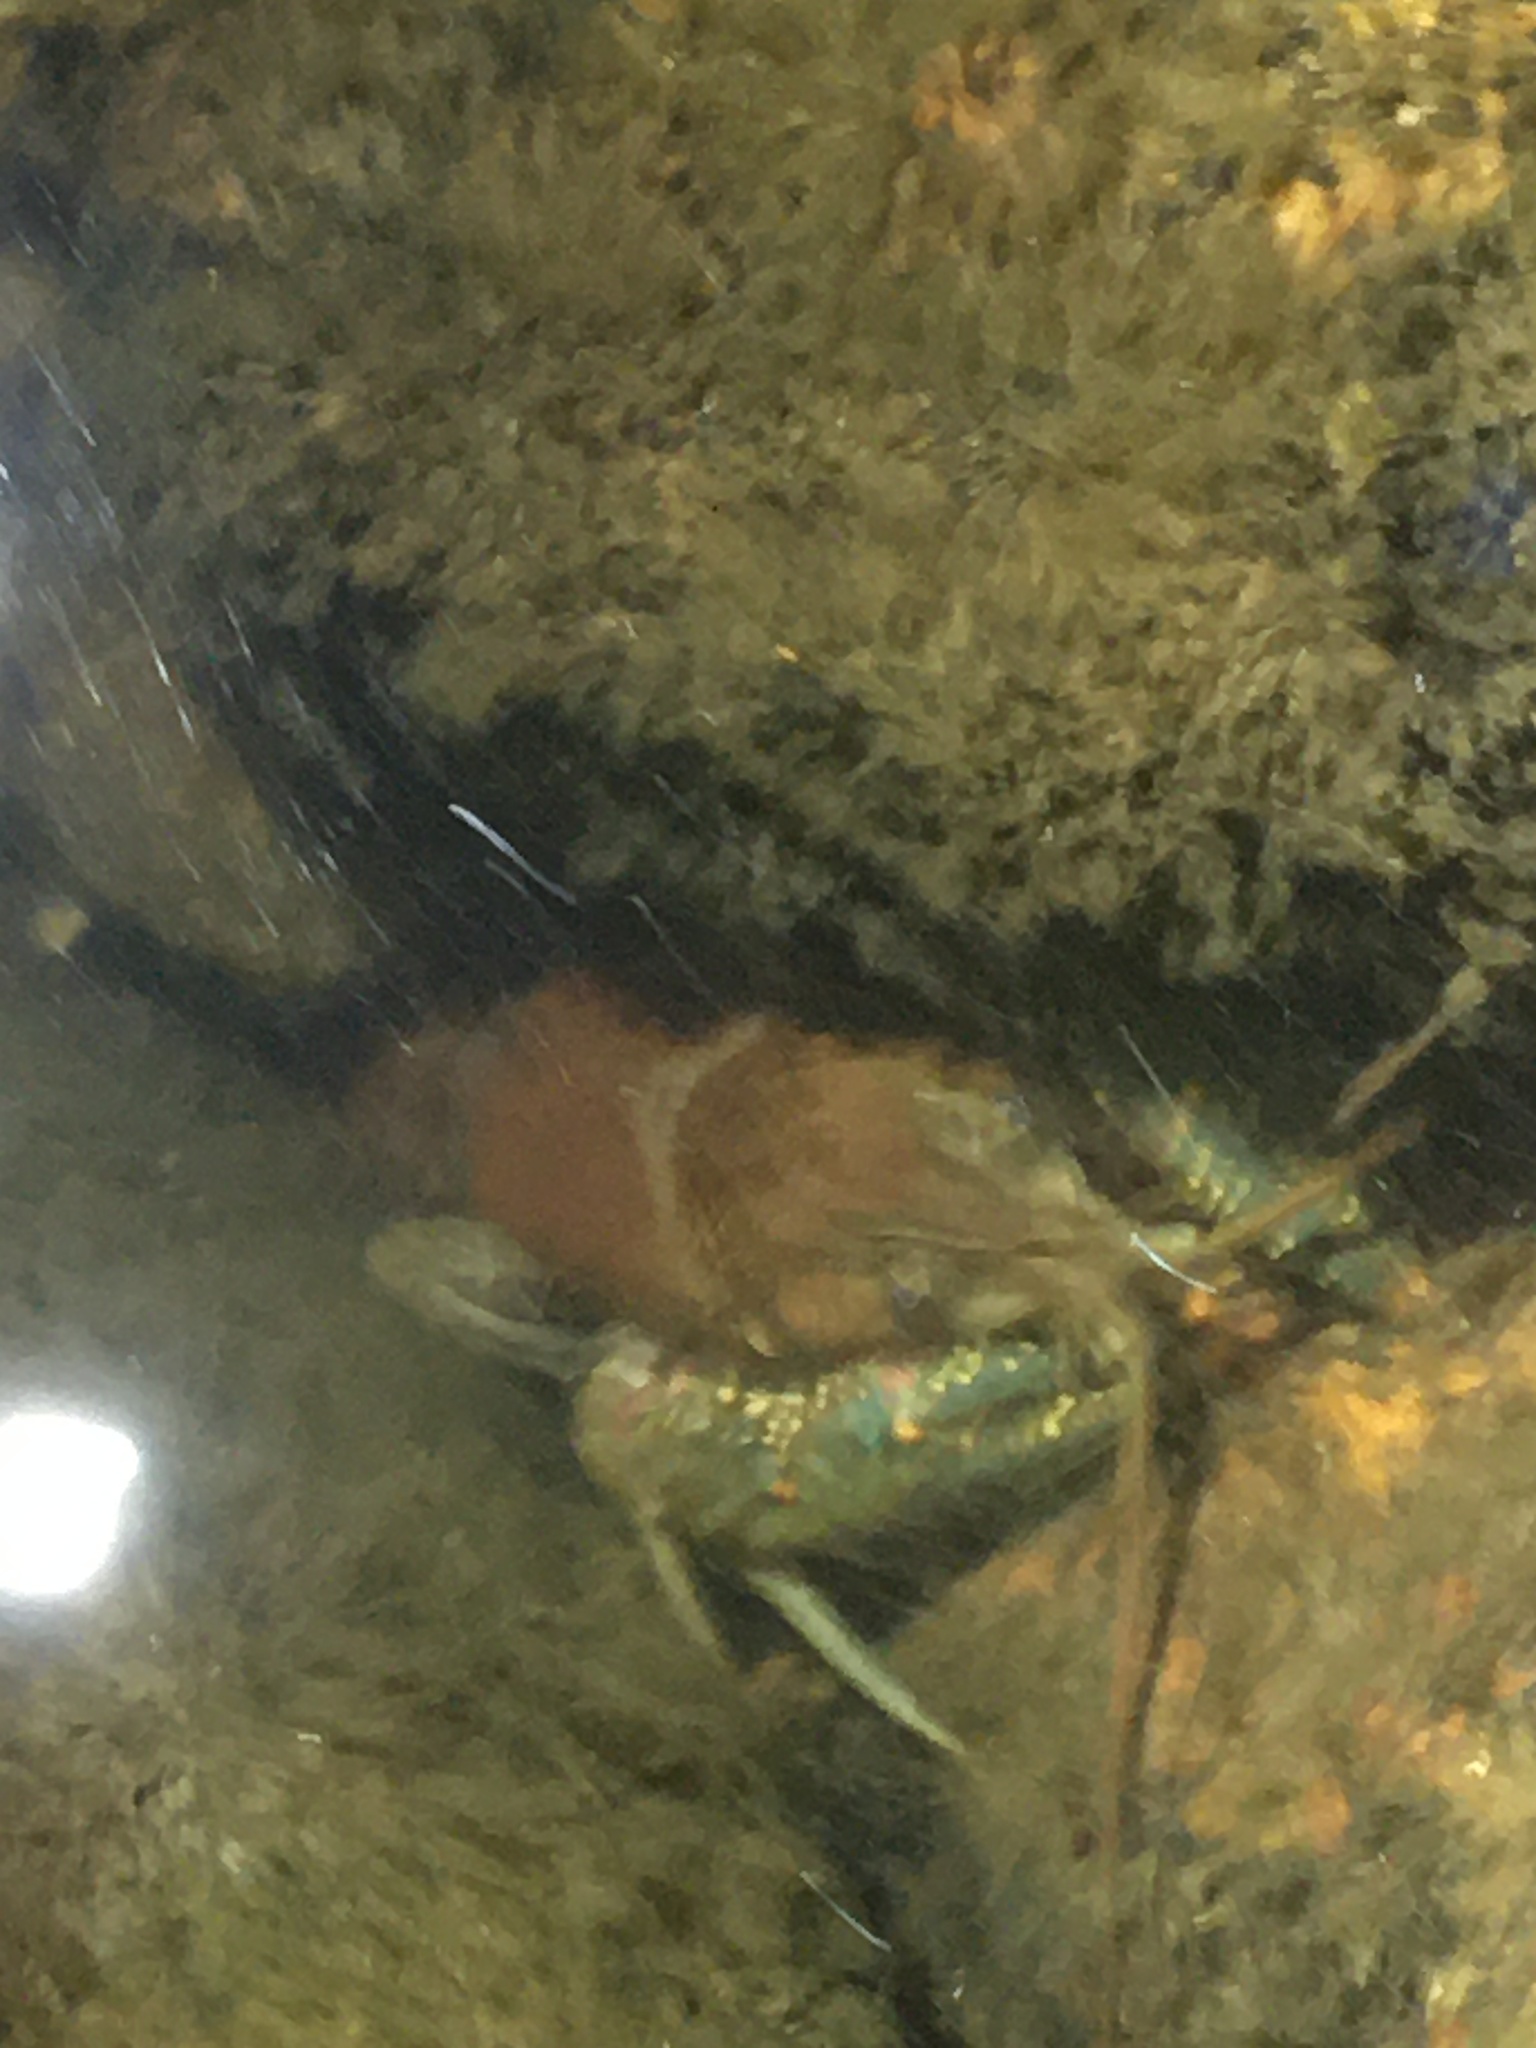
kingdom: Animalia
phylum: Arthropoda
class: Malacostraca
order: Decapoda
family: Cambaridae
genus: Faxonius
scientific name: Faxonius virilis
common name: Virile crayfish
